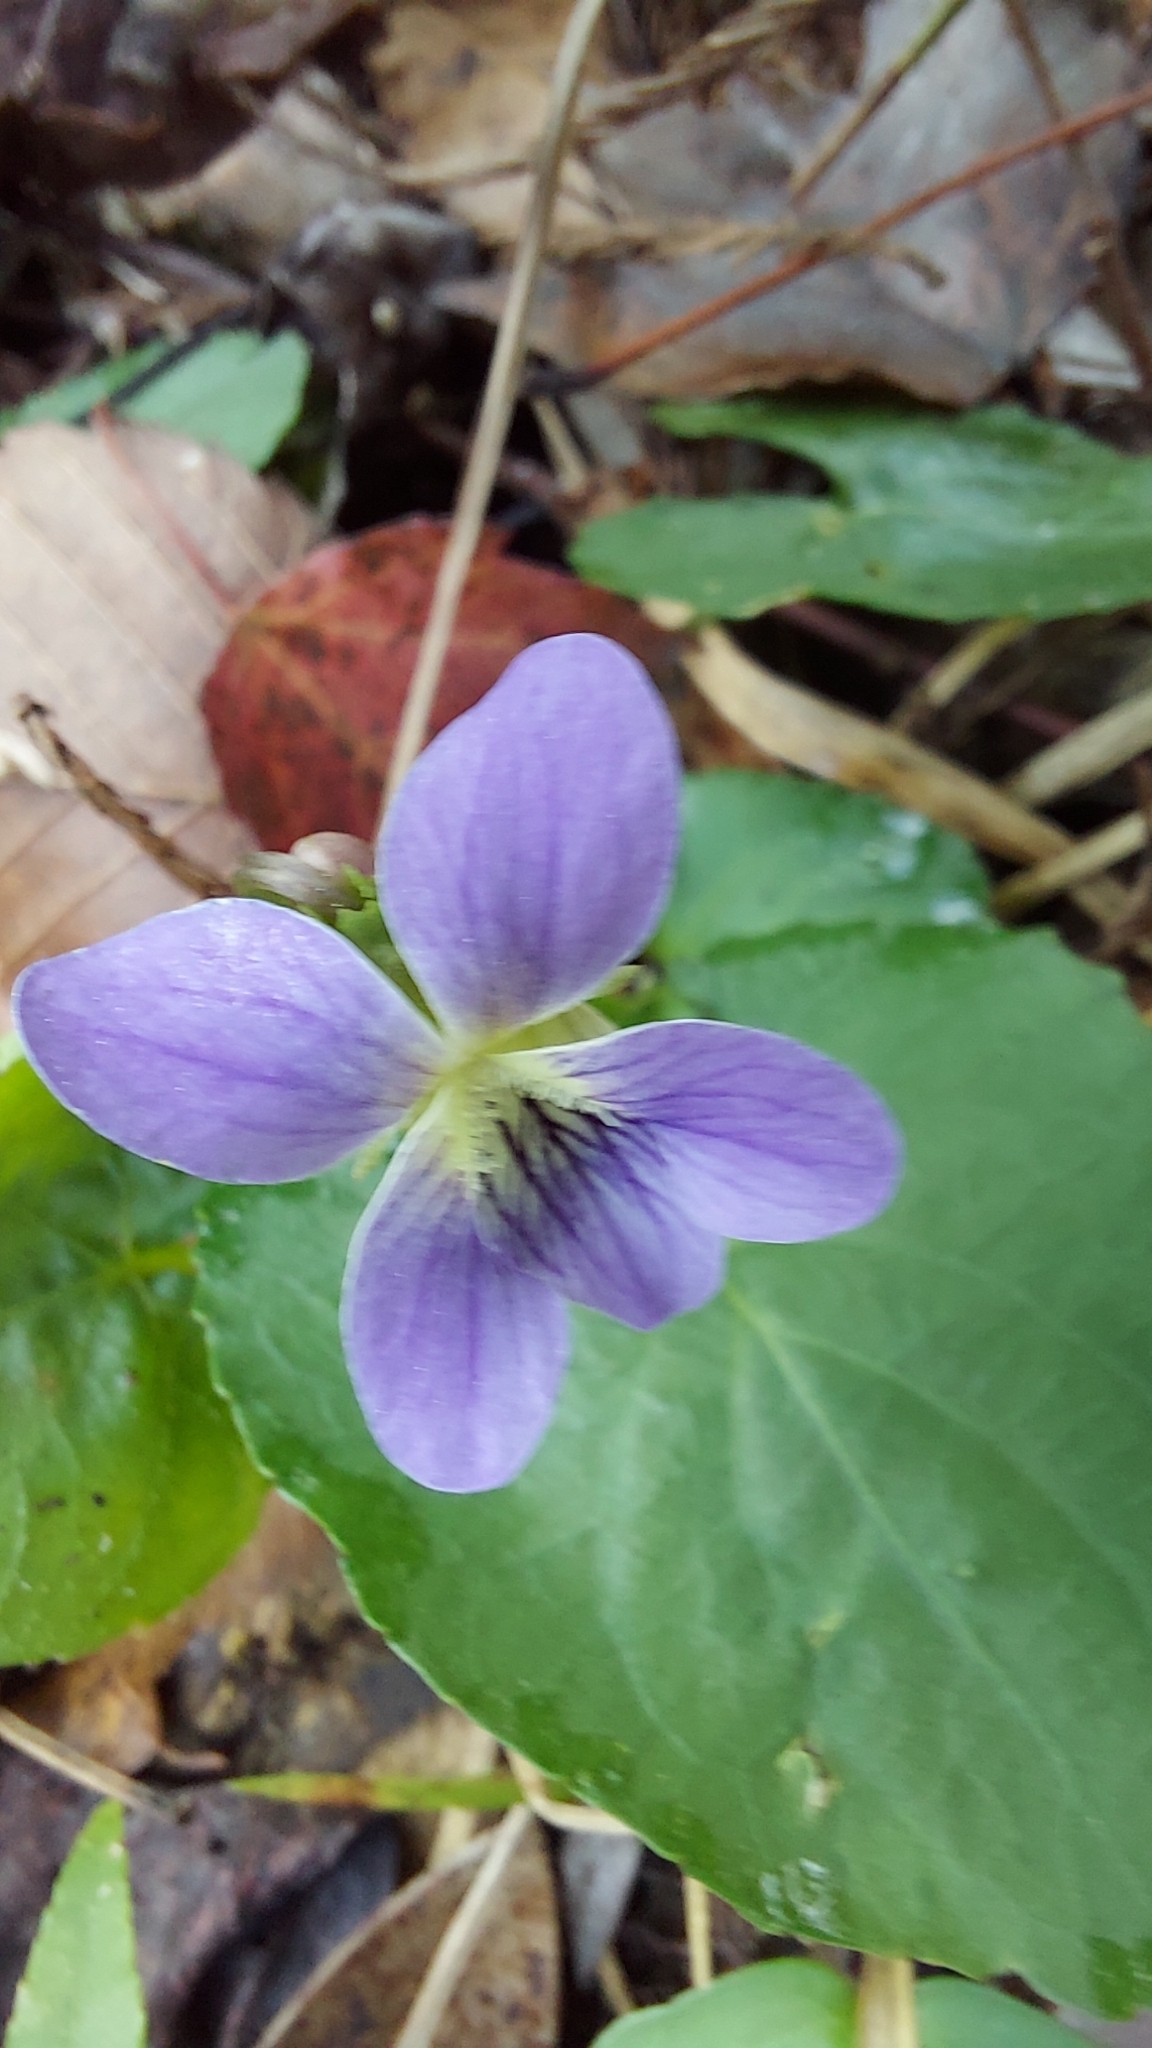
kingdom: Plantae
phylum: Tracheophyta
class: Magnoliopsida
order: Malpighiales
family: Violaceae
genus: Viola
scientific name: Viola sororia
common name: Dooryard violet
